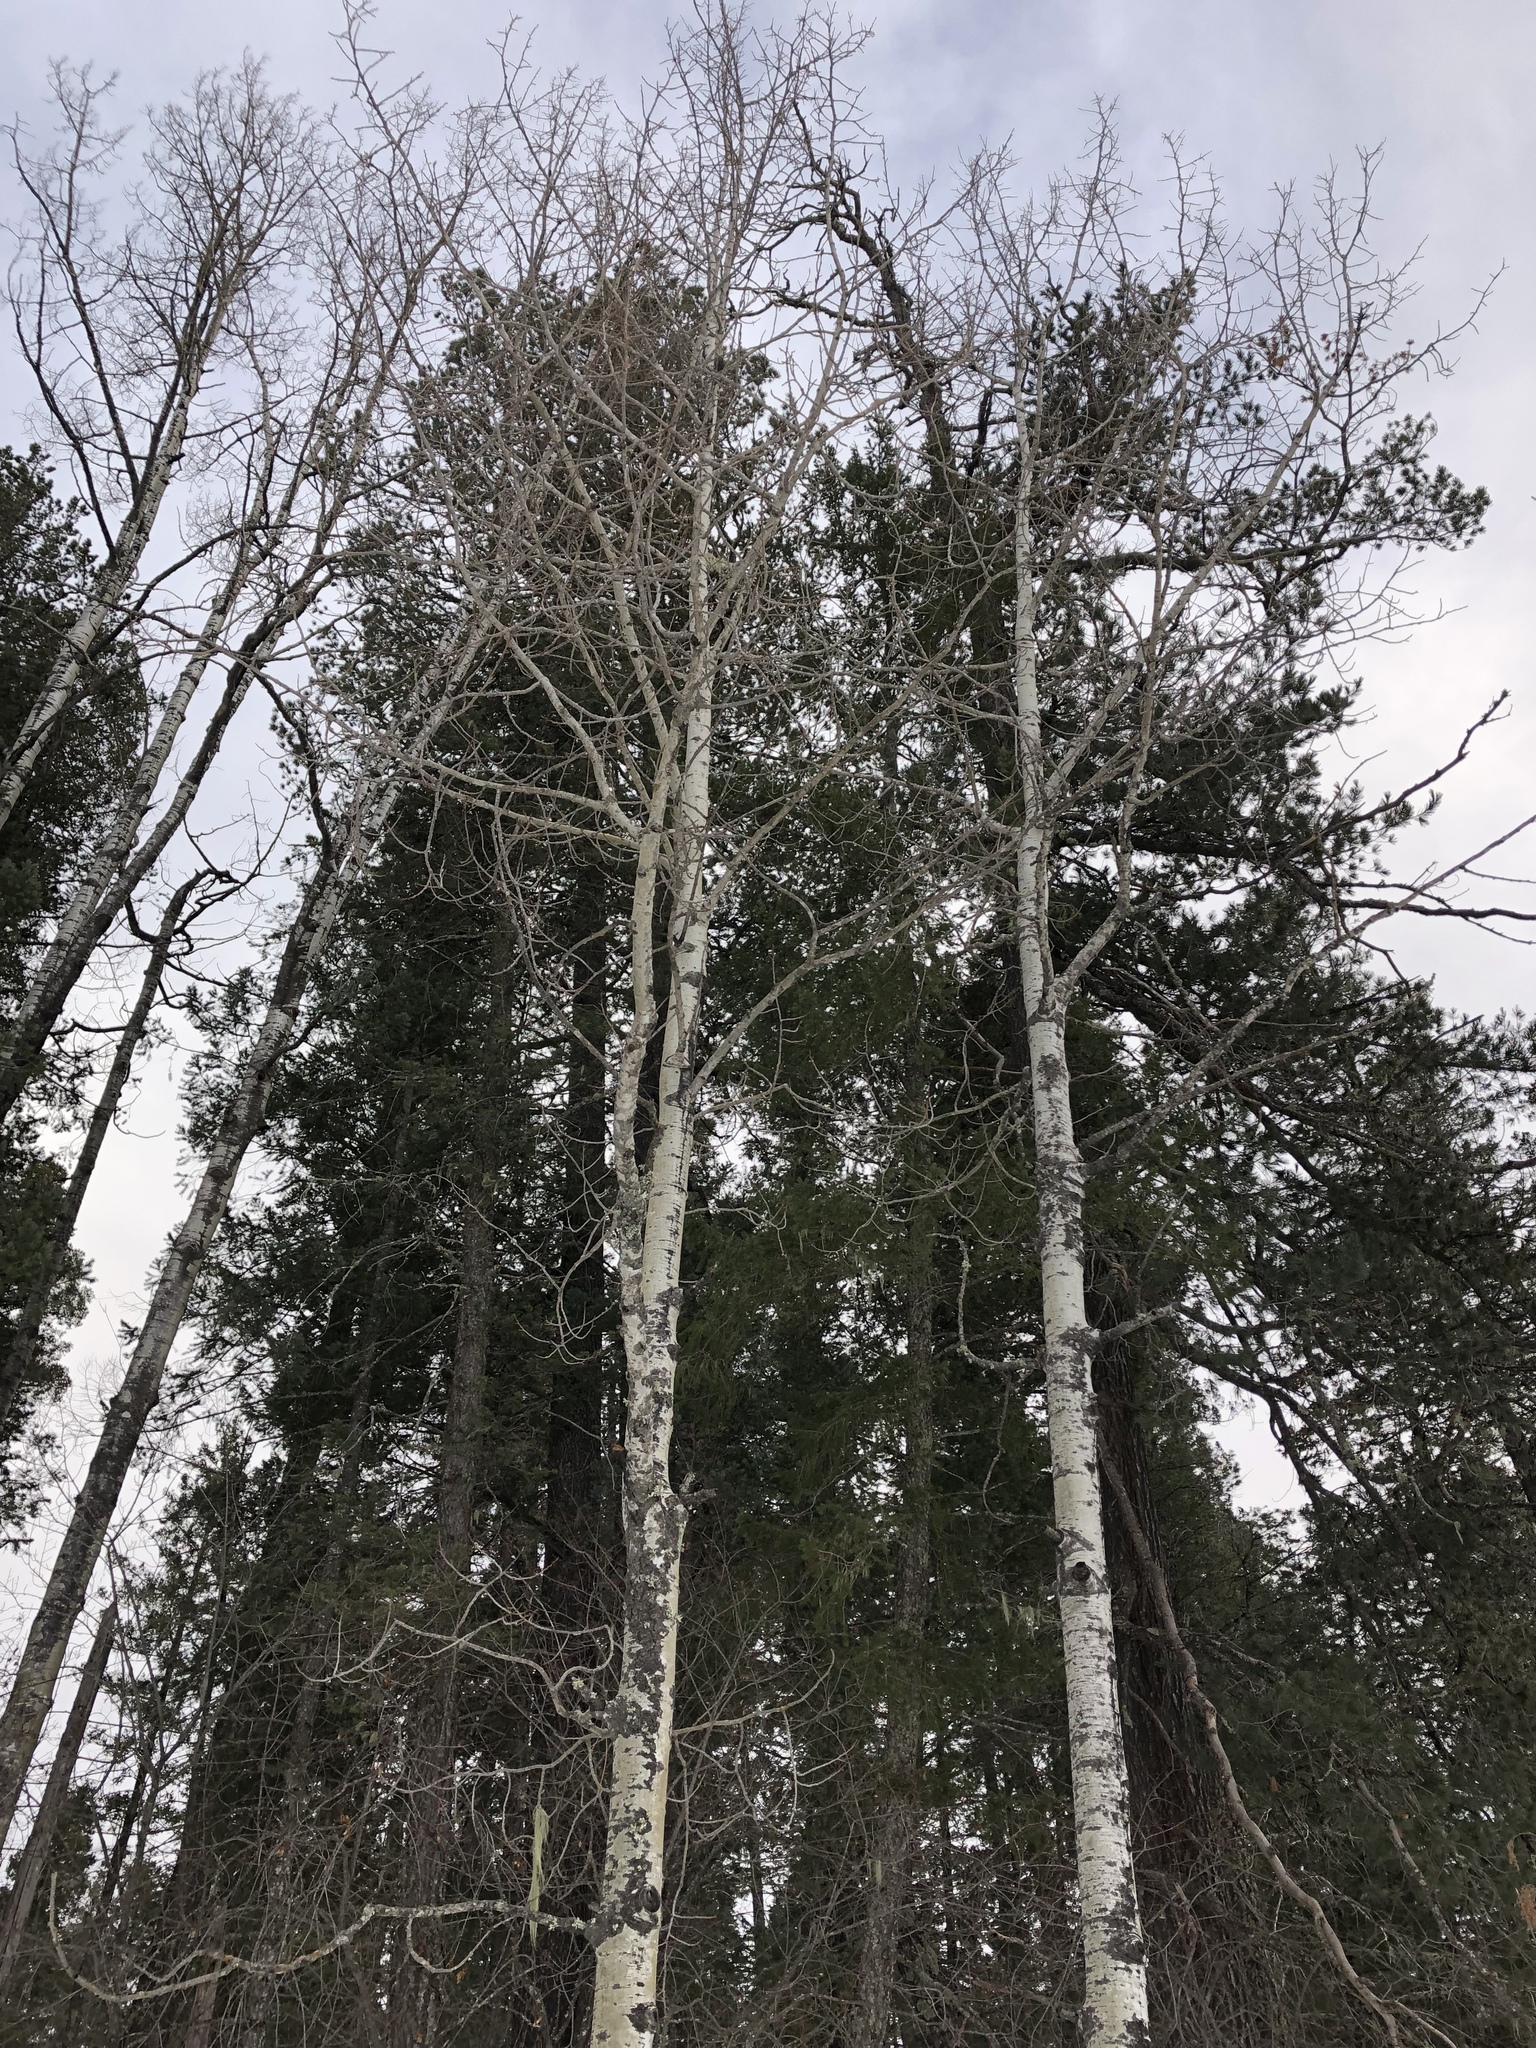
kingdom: Plantae
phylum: Tracheophyta
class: Magnoliopsida
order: Malpighiales
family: Salicaceae
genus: Populus
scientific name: Populus tremuloides
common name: Quaking aspen
